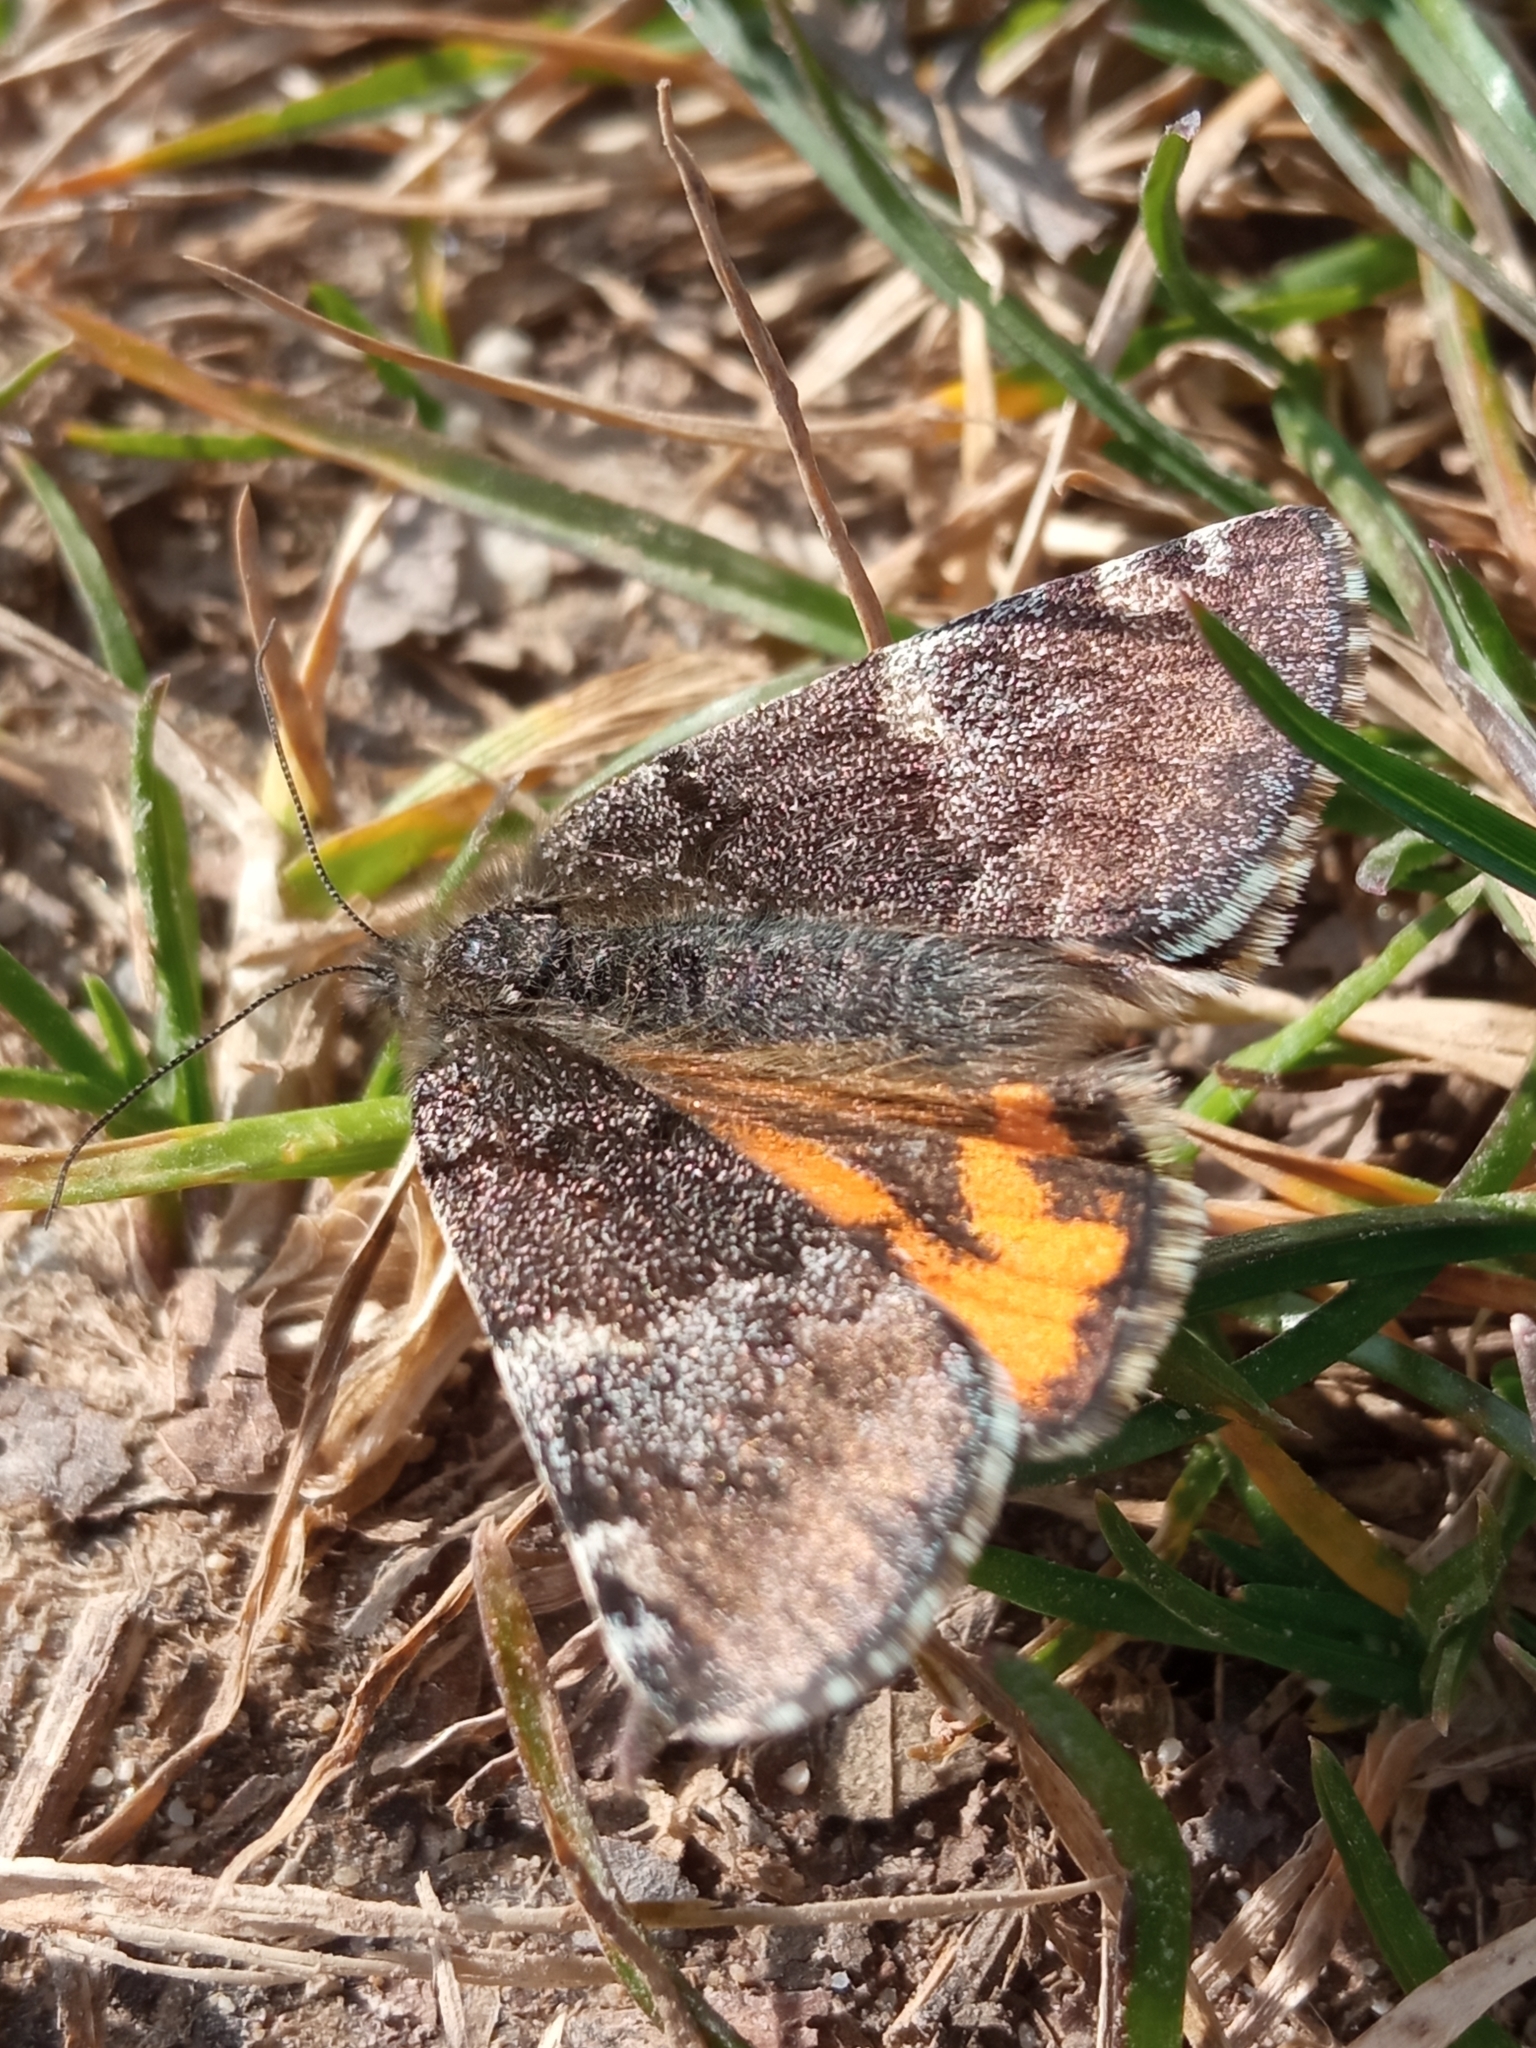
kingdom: Animalia
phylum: Arthropoda
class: Insecta
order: Lepidoptera
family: Geometridae
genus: Archiearis
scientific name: Archiearis parthenias
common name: Orange underwing
